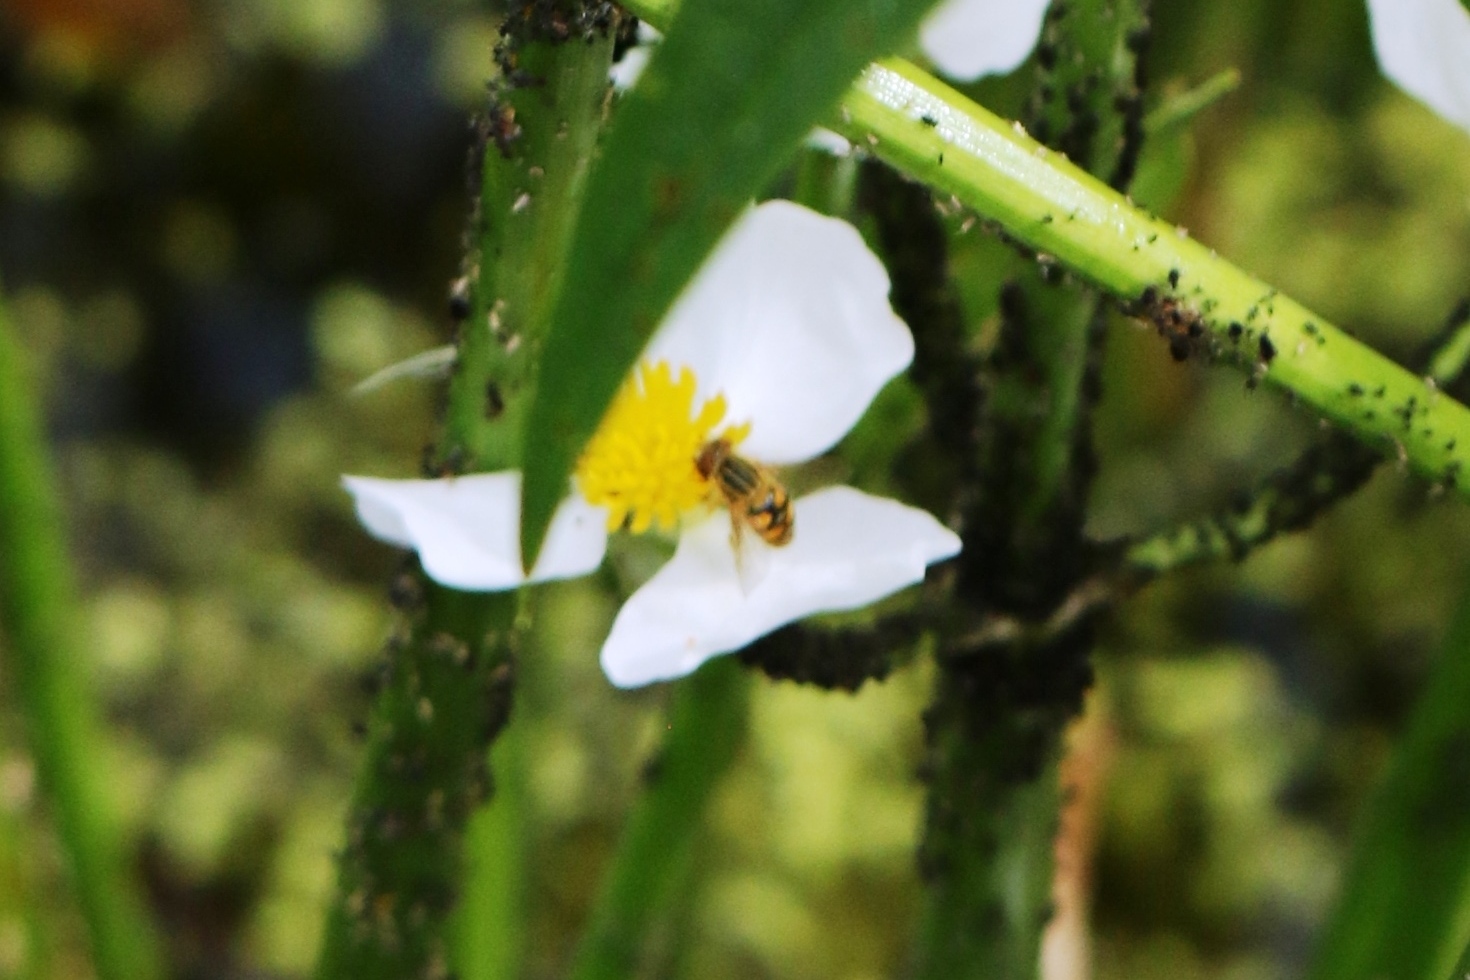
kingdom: Animalia
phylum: Arthropoda
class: Insecta
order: Diptera
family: Syrphidae
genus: Parhelophilus
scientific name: Parhelophilus laetus
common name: Common bog fly
